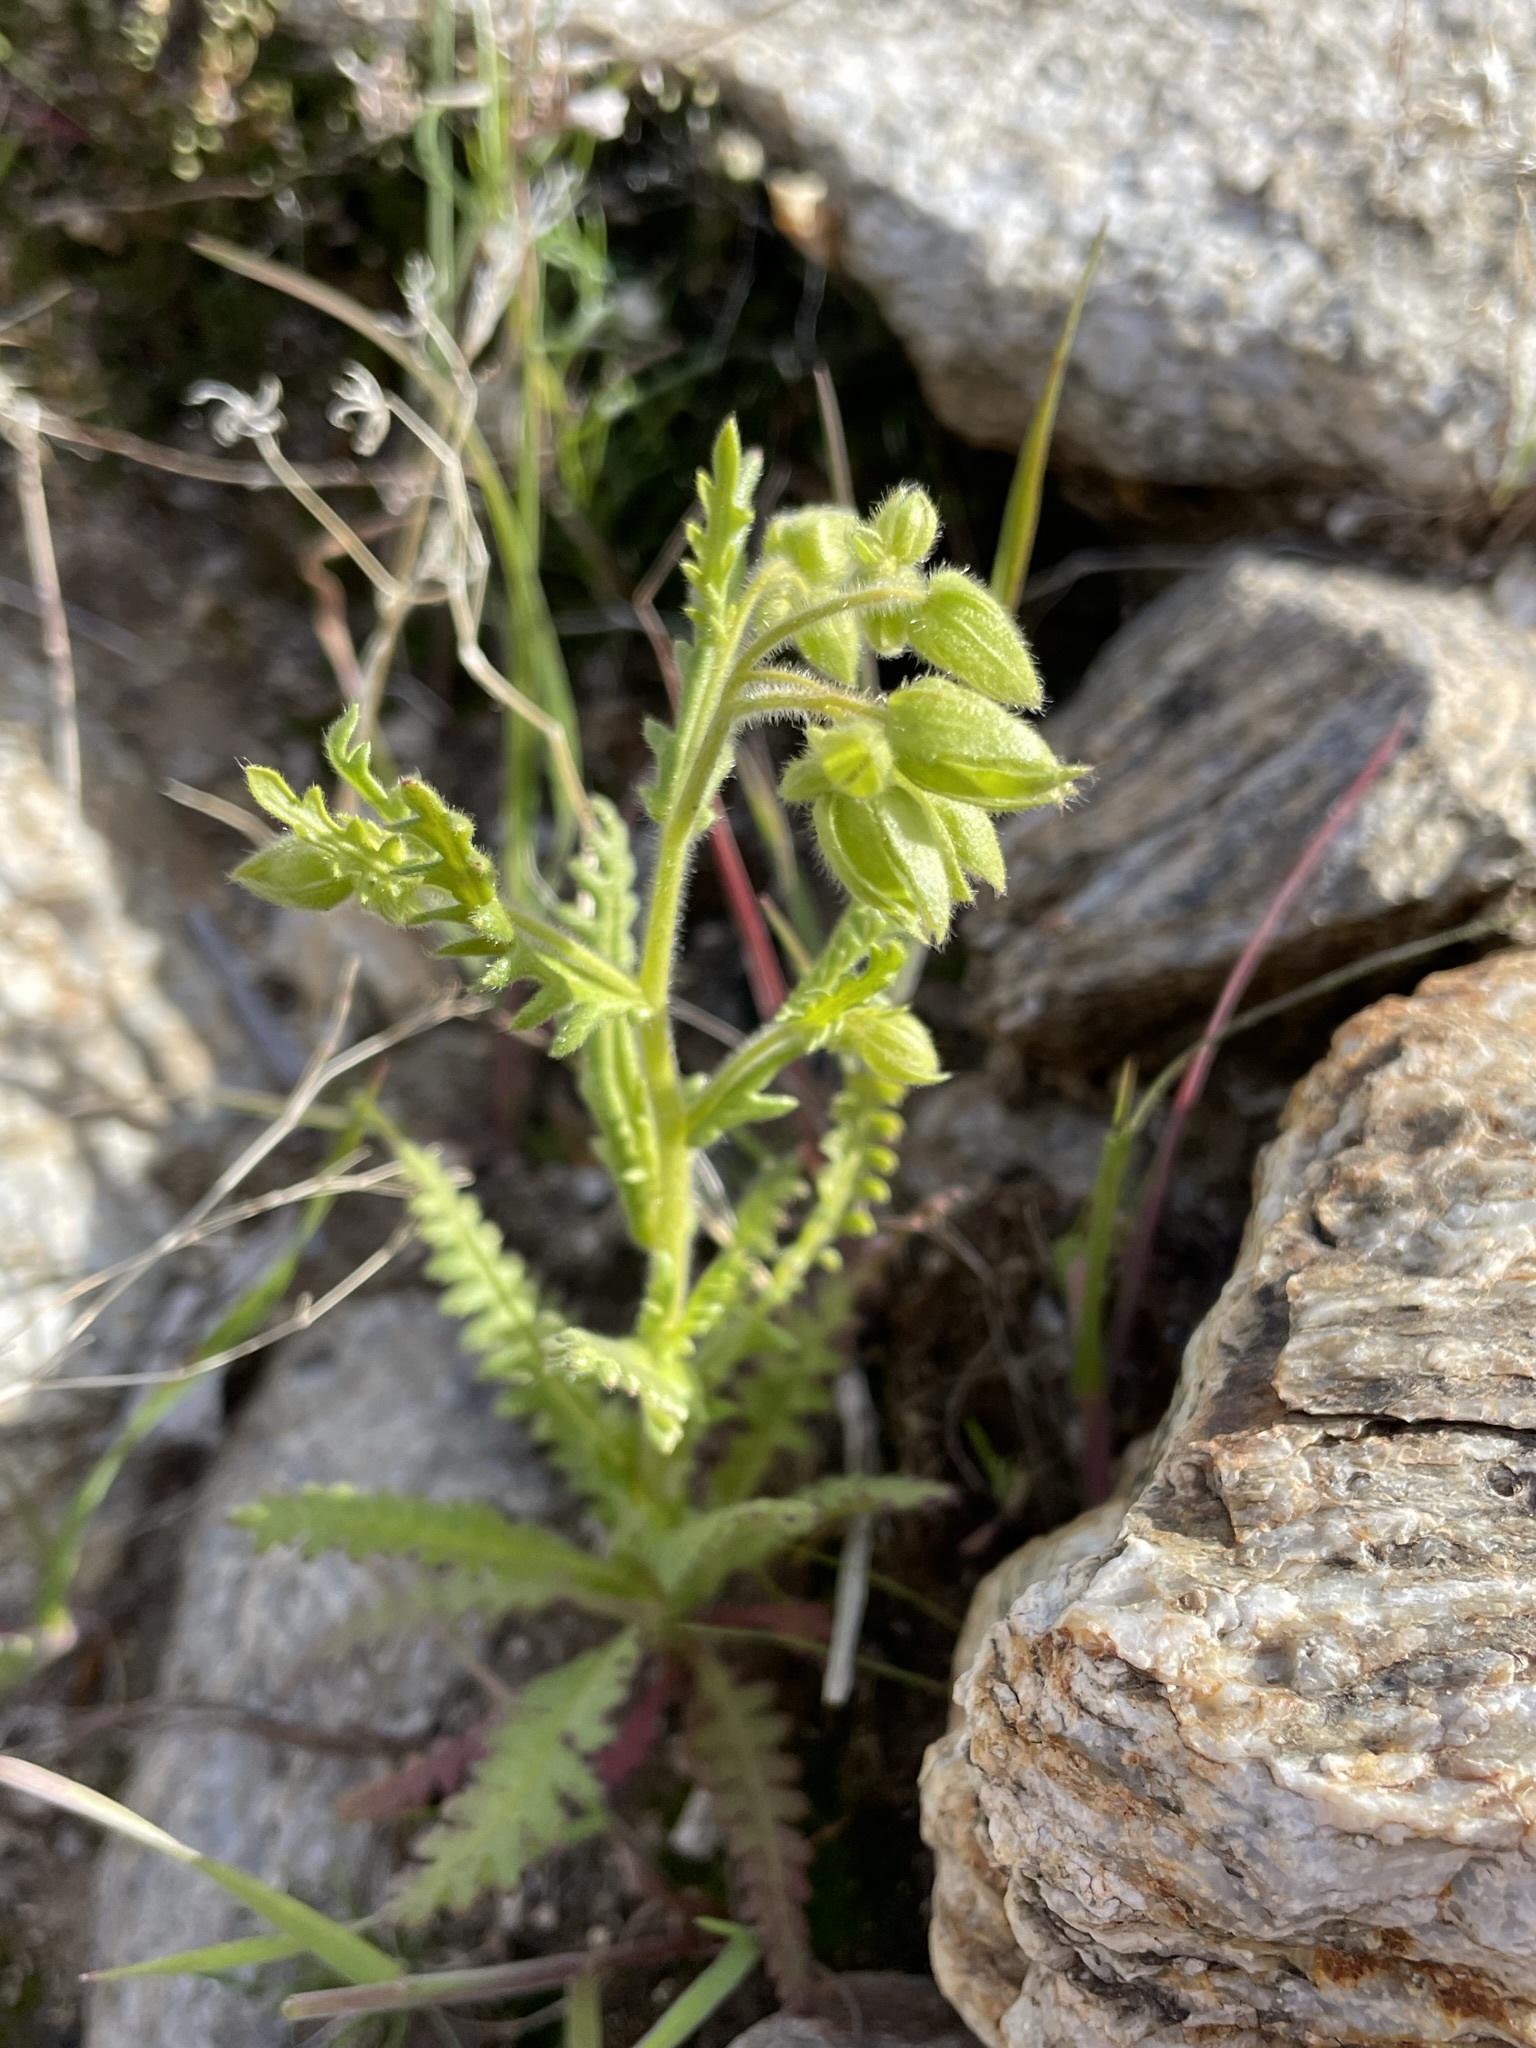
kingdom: Plantae
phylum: Tracheophyta
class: Magnoliopsida
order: Boraginales
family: Hydrophyllaceae
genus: Emmenanthe
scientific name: Emmenanthe penduliflora
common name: Whispering-bells
